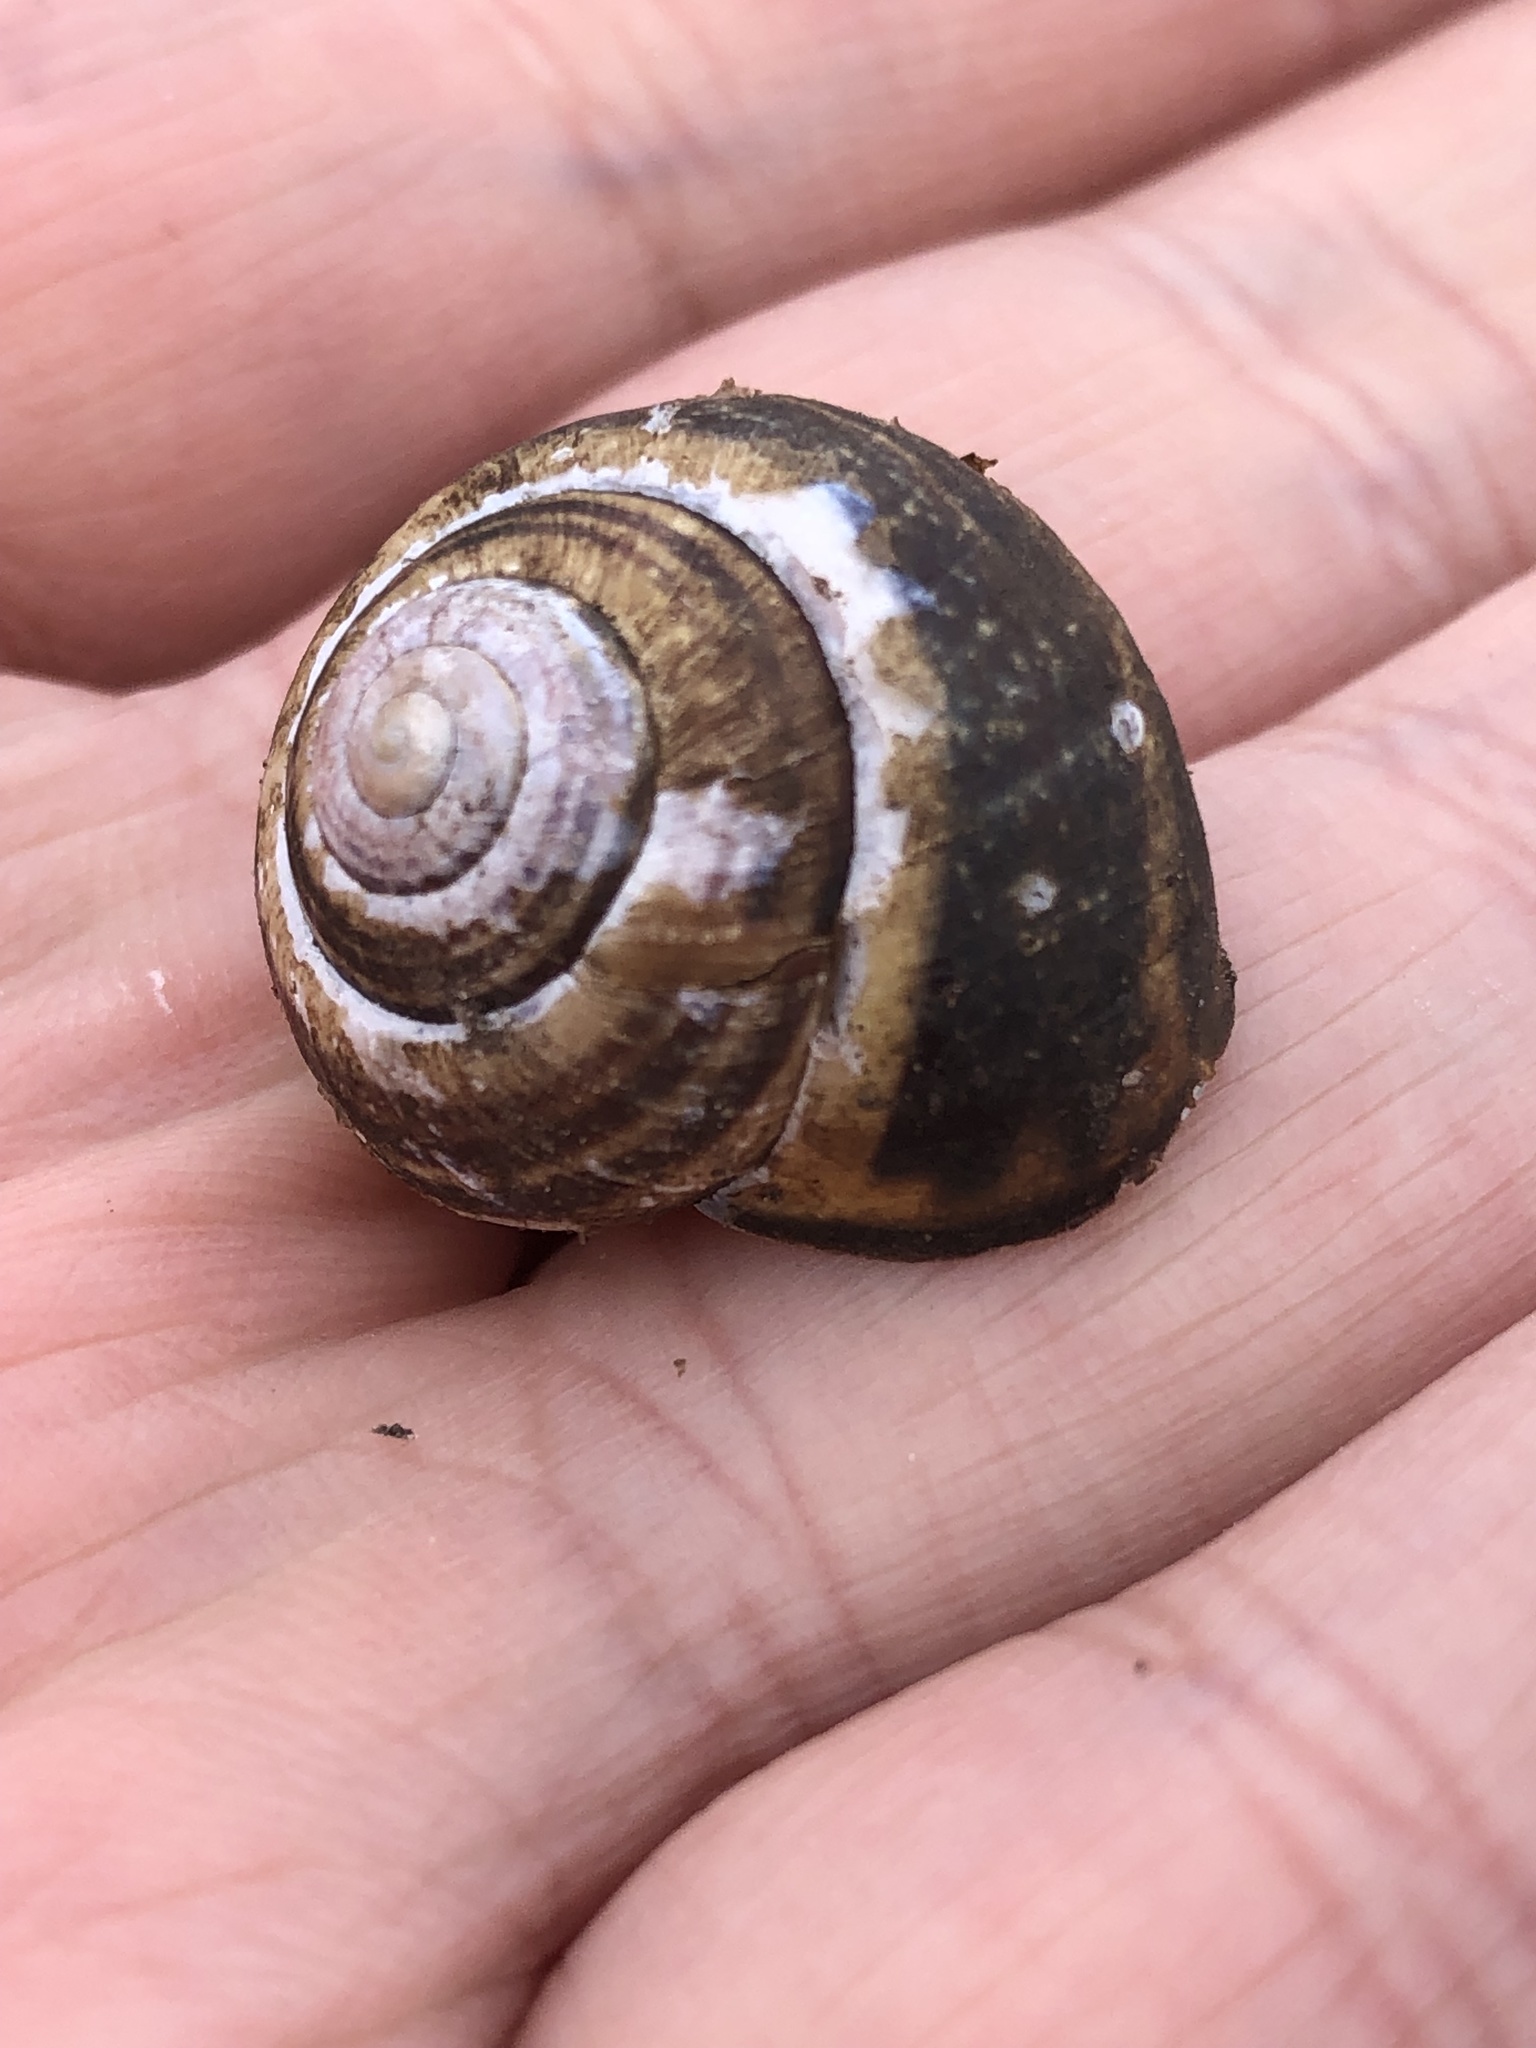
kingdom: Animalia
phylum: Mollusca
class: Gastropoda
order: Stylommatophora
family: Helicidae
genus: Cepaea
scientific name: Cepaea nemoralis
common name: Grovesnail
